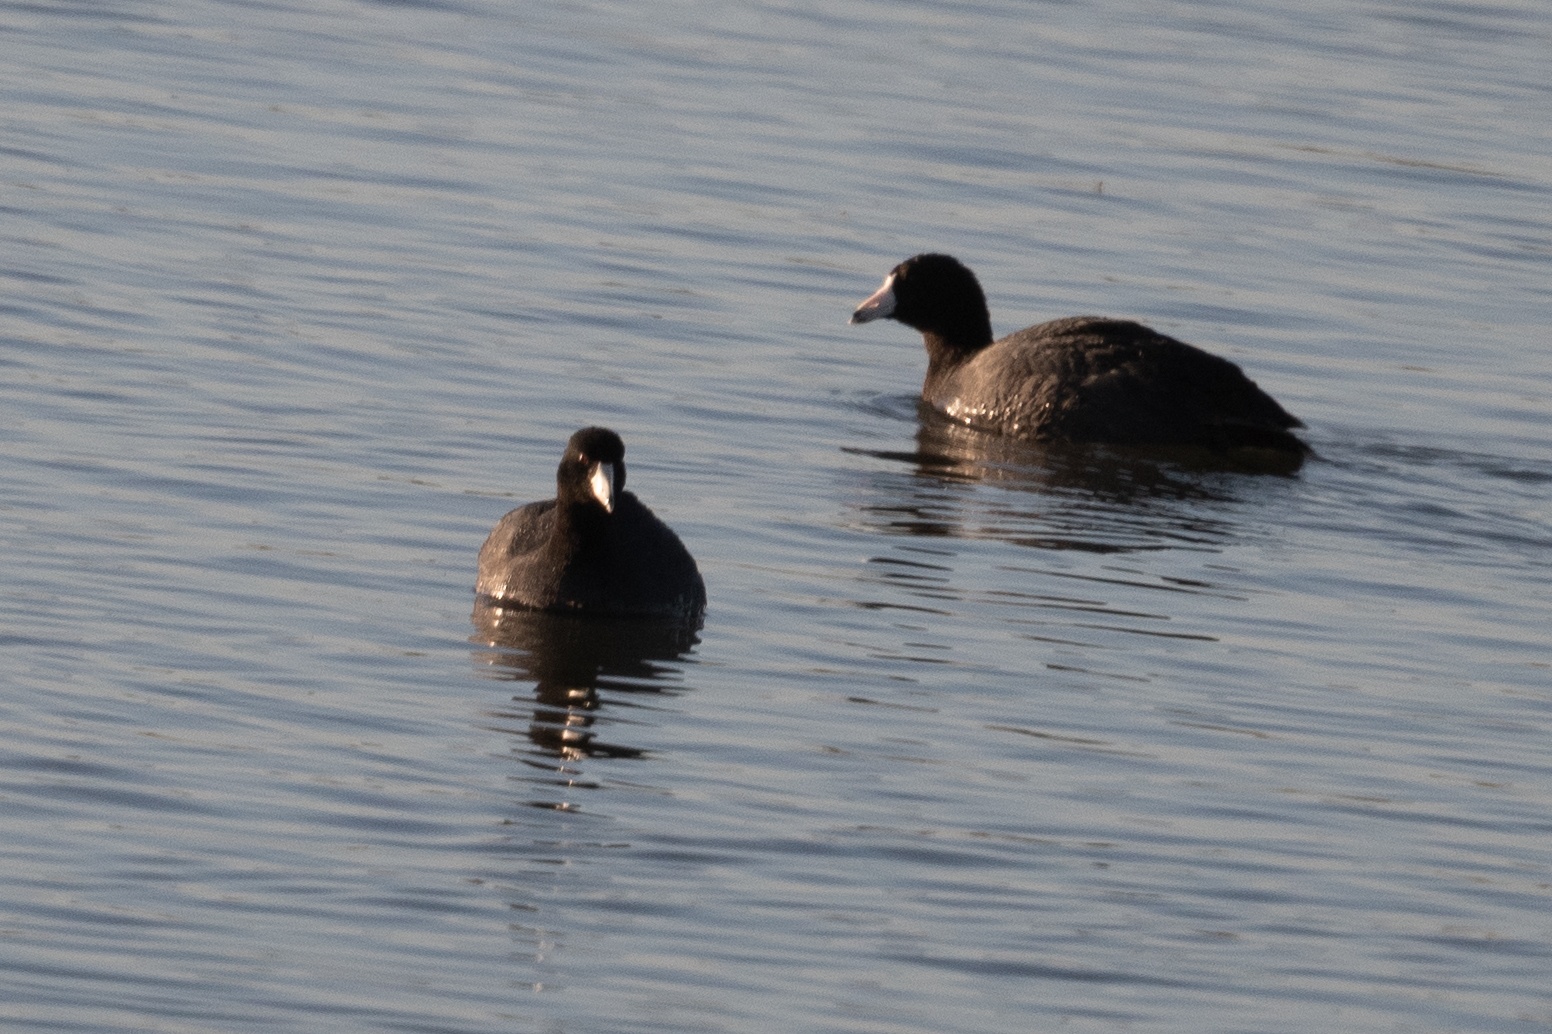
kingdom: Animalia
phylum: Chordata
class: Aves
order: Gruiformes
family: Rallidae
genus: Fulica
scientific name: Fulica americana
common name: American coot
